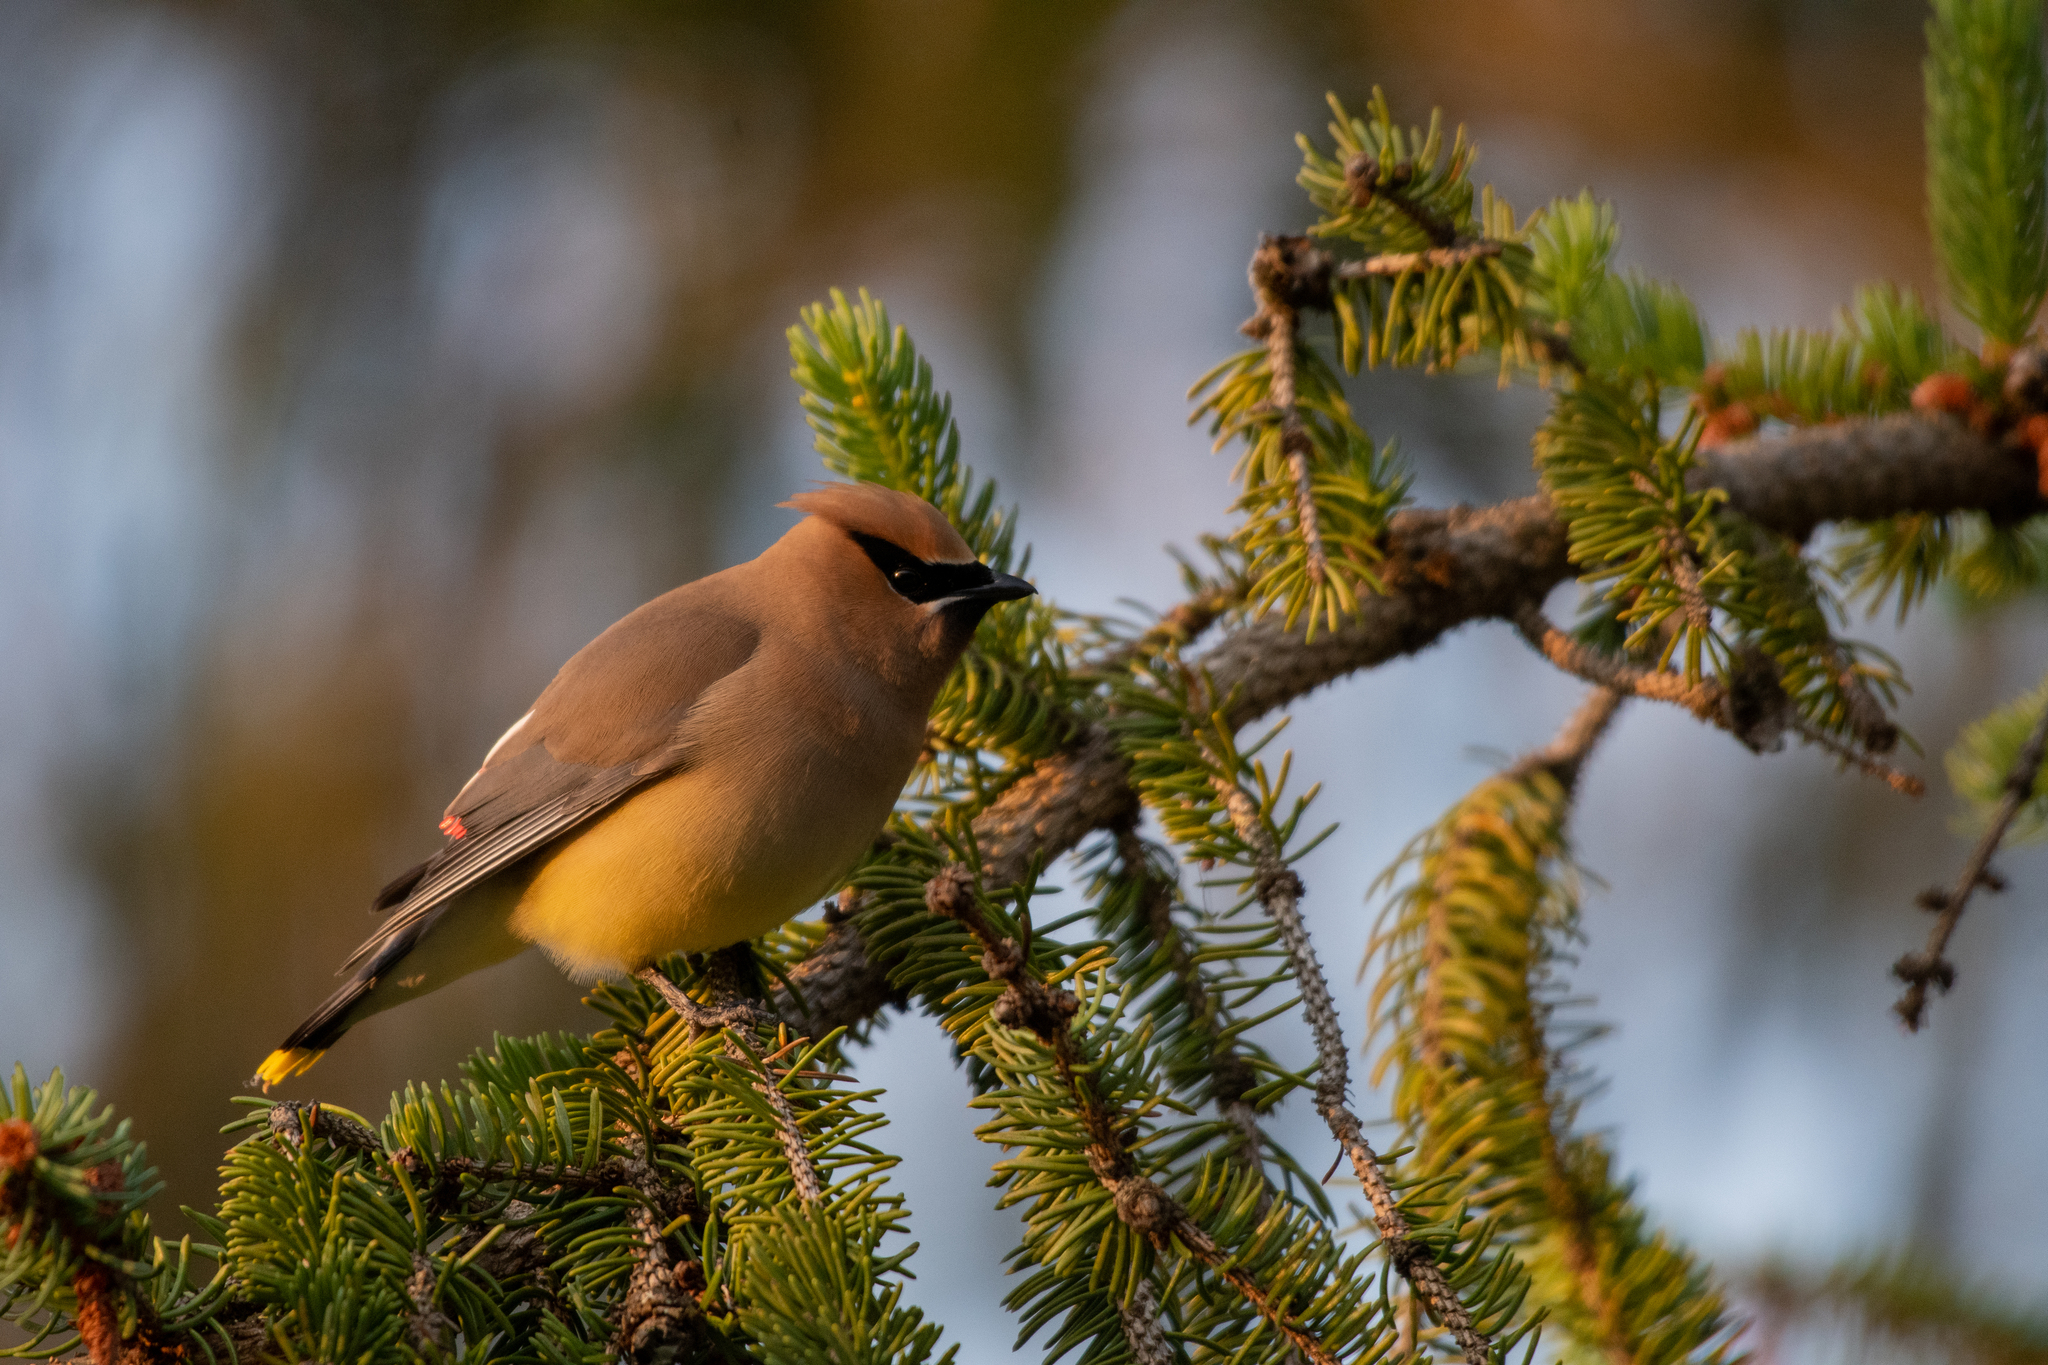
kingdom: Animalia
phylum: Chordata
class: Aves
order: Passeriformes
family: Bombycillidae
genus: Bombycilla
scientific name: Bombycilla cedrorum
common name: Cedar waxwing
